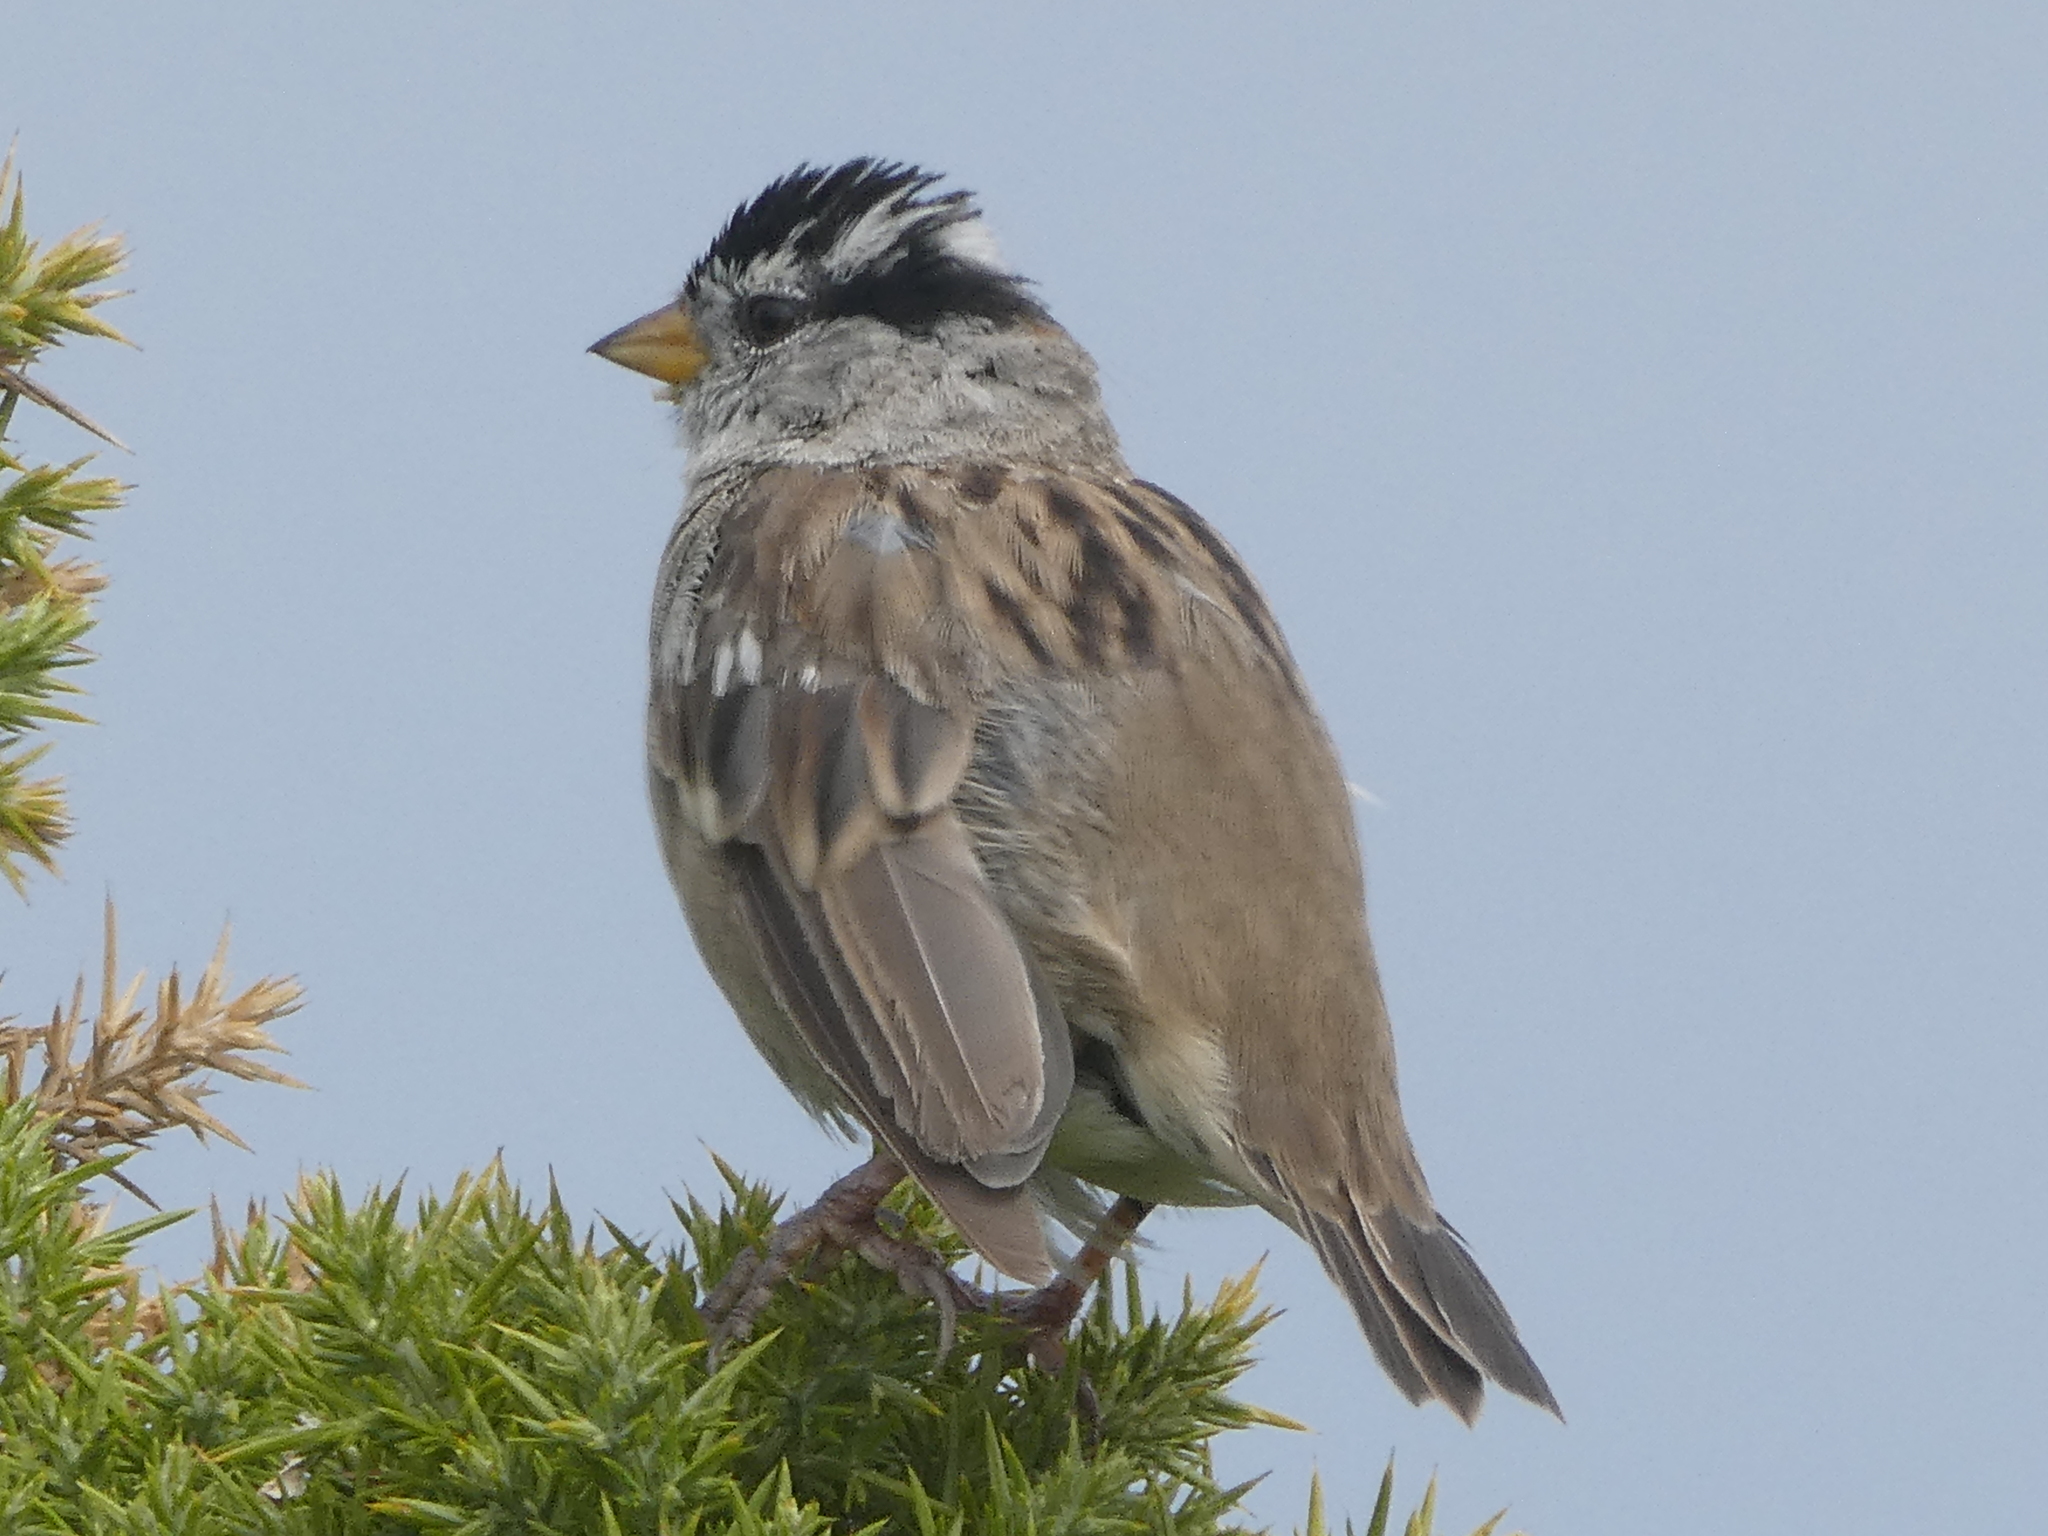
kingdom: Animalia
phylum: Chordata
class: Aves
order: Passeriformes
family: Passerellidae
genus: Zonotrichia
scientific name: Zonotrichia leucophrys
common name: White-crowned sparrow
